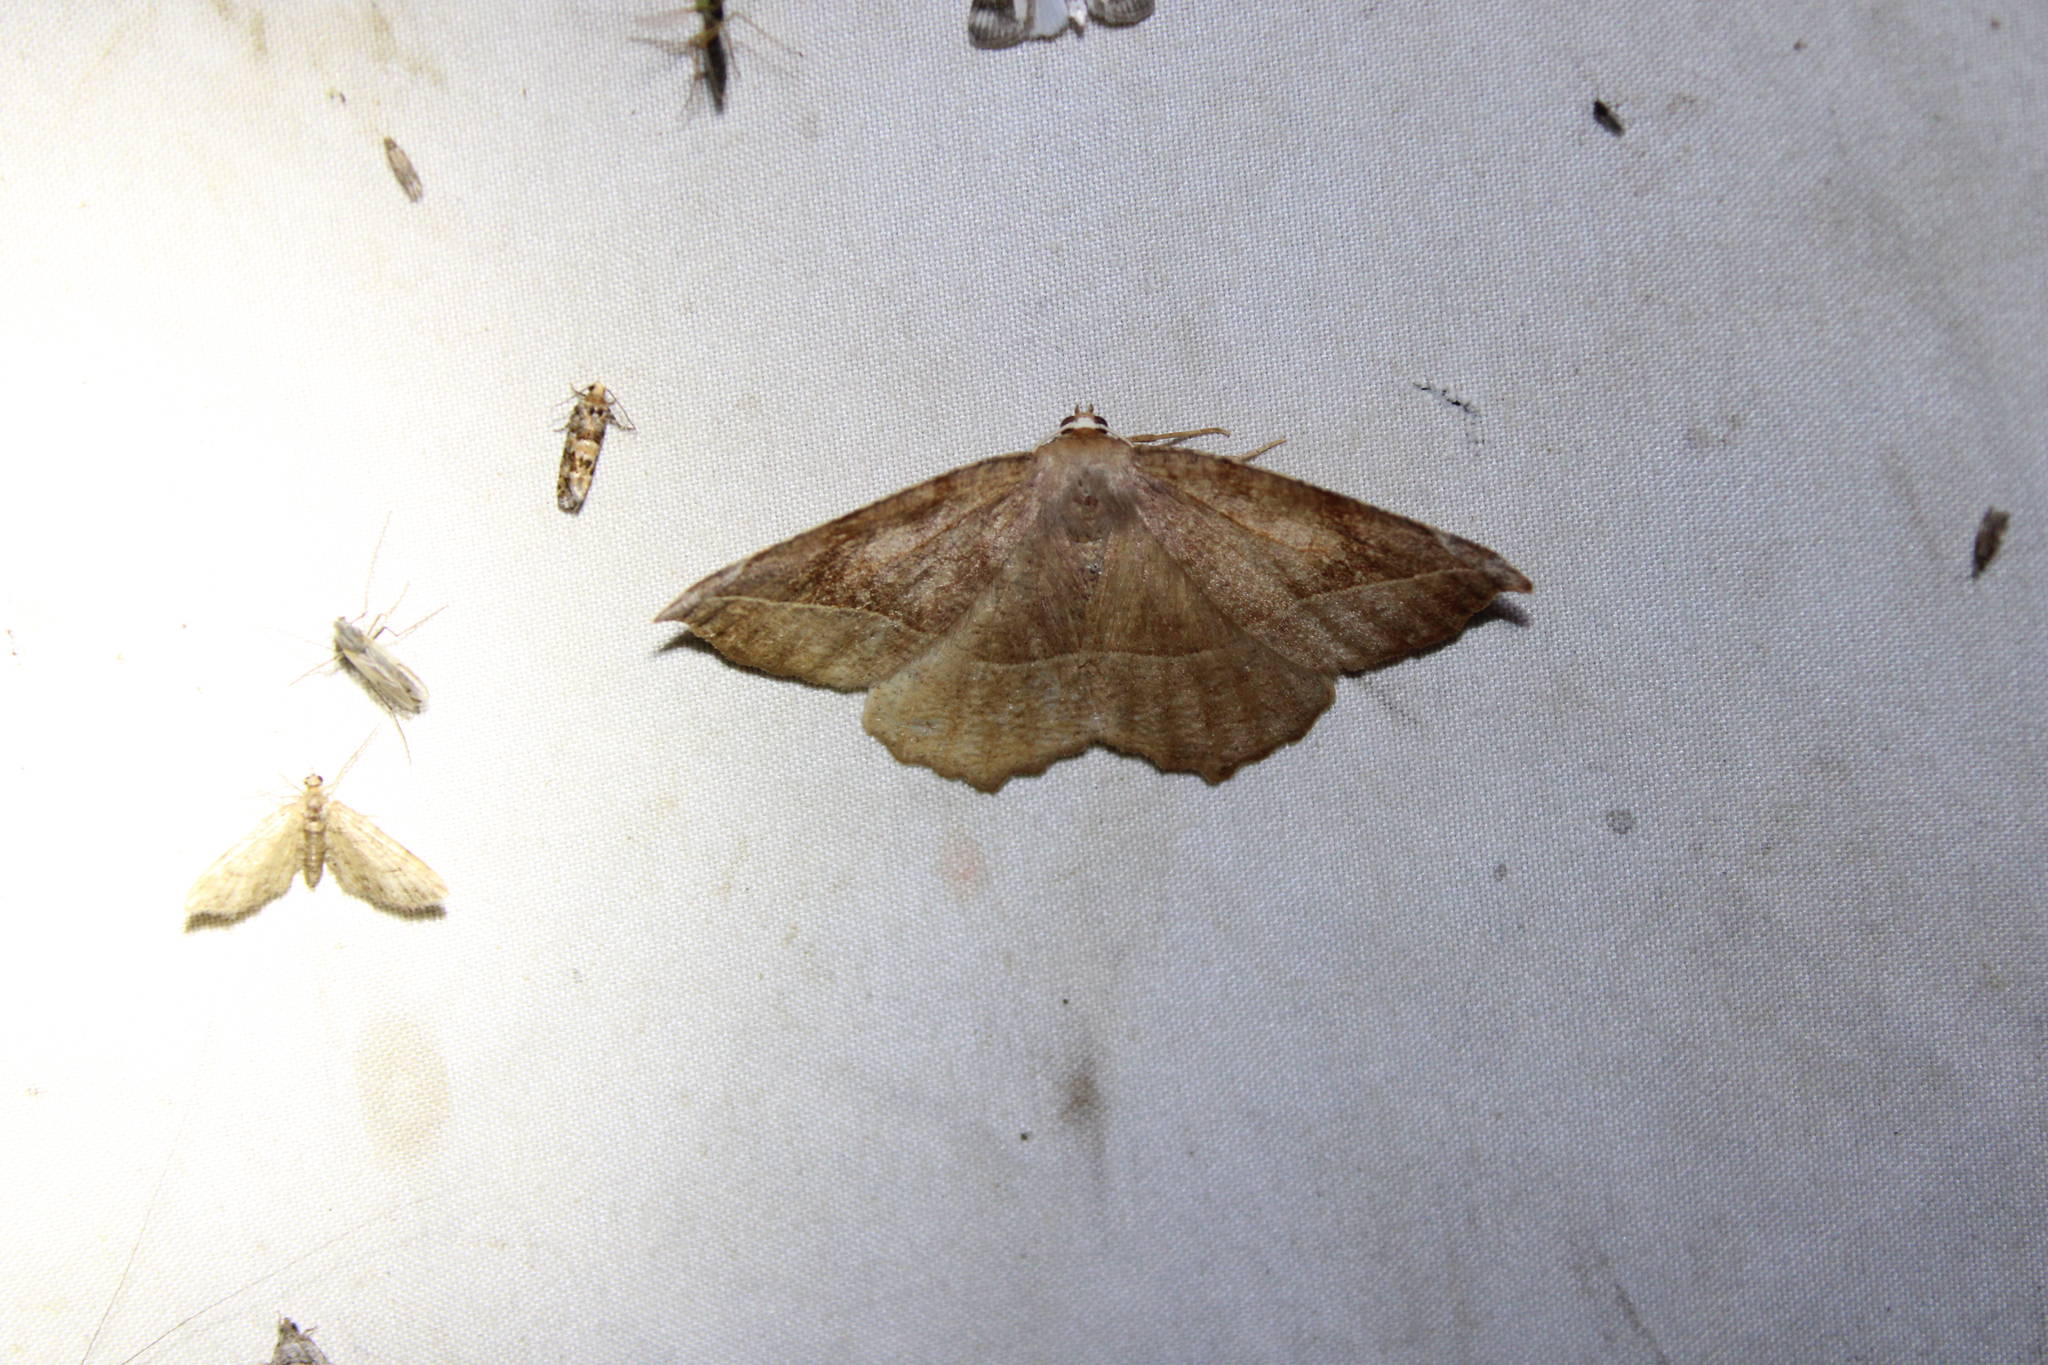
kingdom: Animalia
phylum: Arthropoda
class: Insecta
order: Lepidoptera
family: Geometridae
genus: Eutrapela
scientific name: Eutrapela clemataria
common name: Curved-toothed geometer
